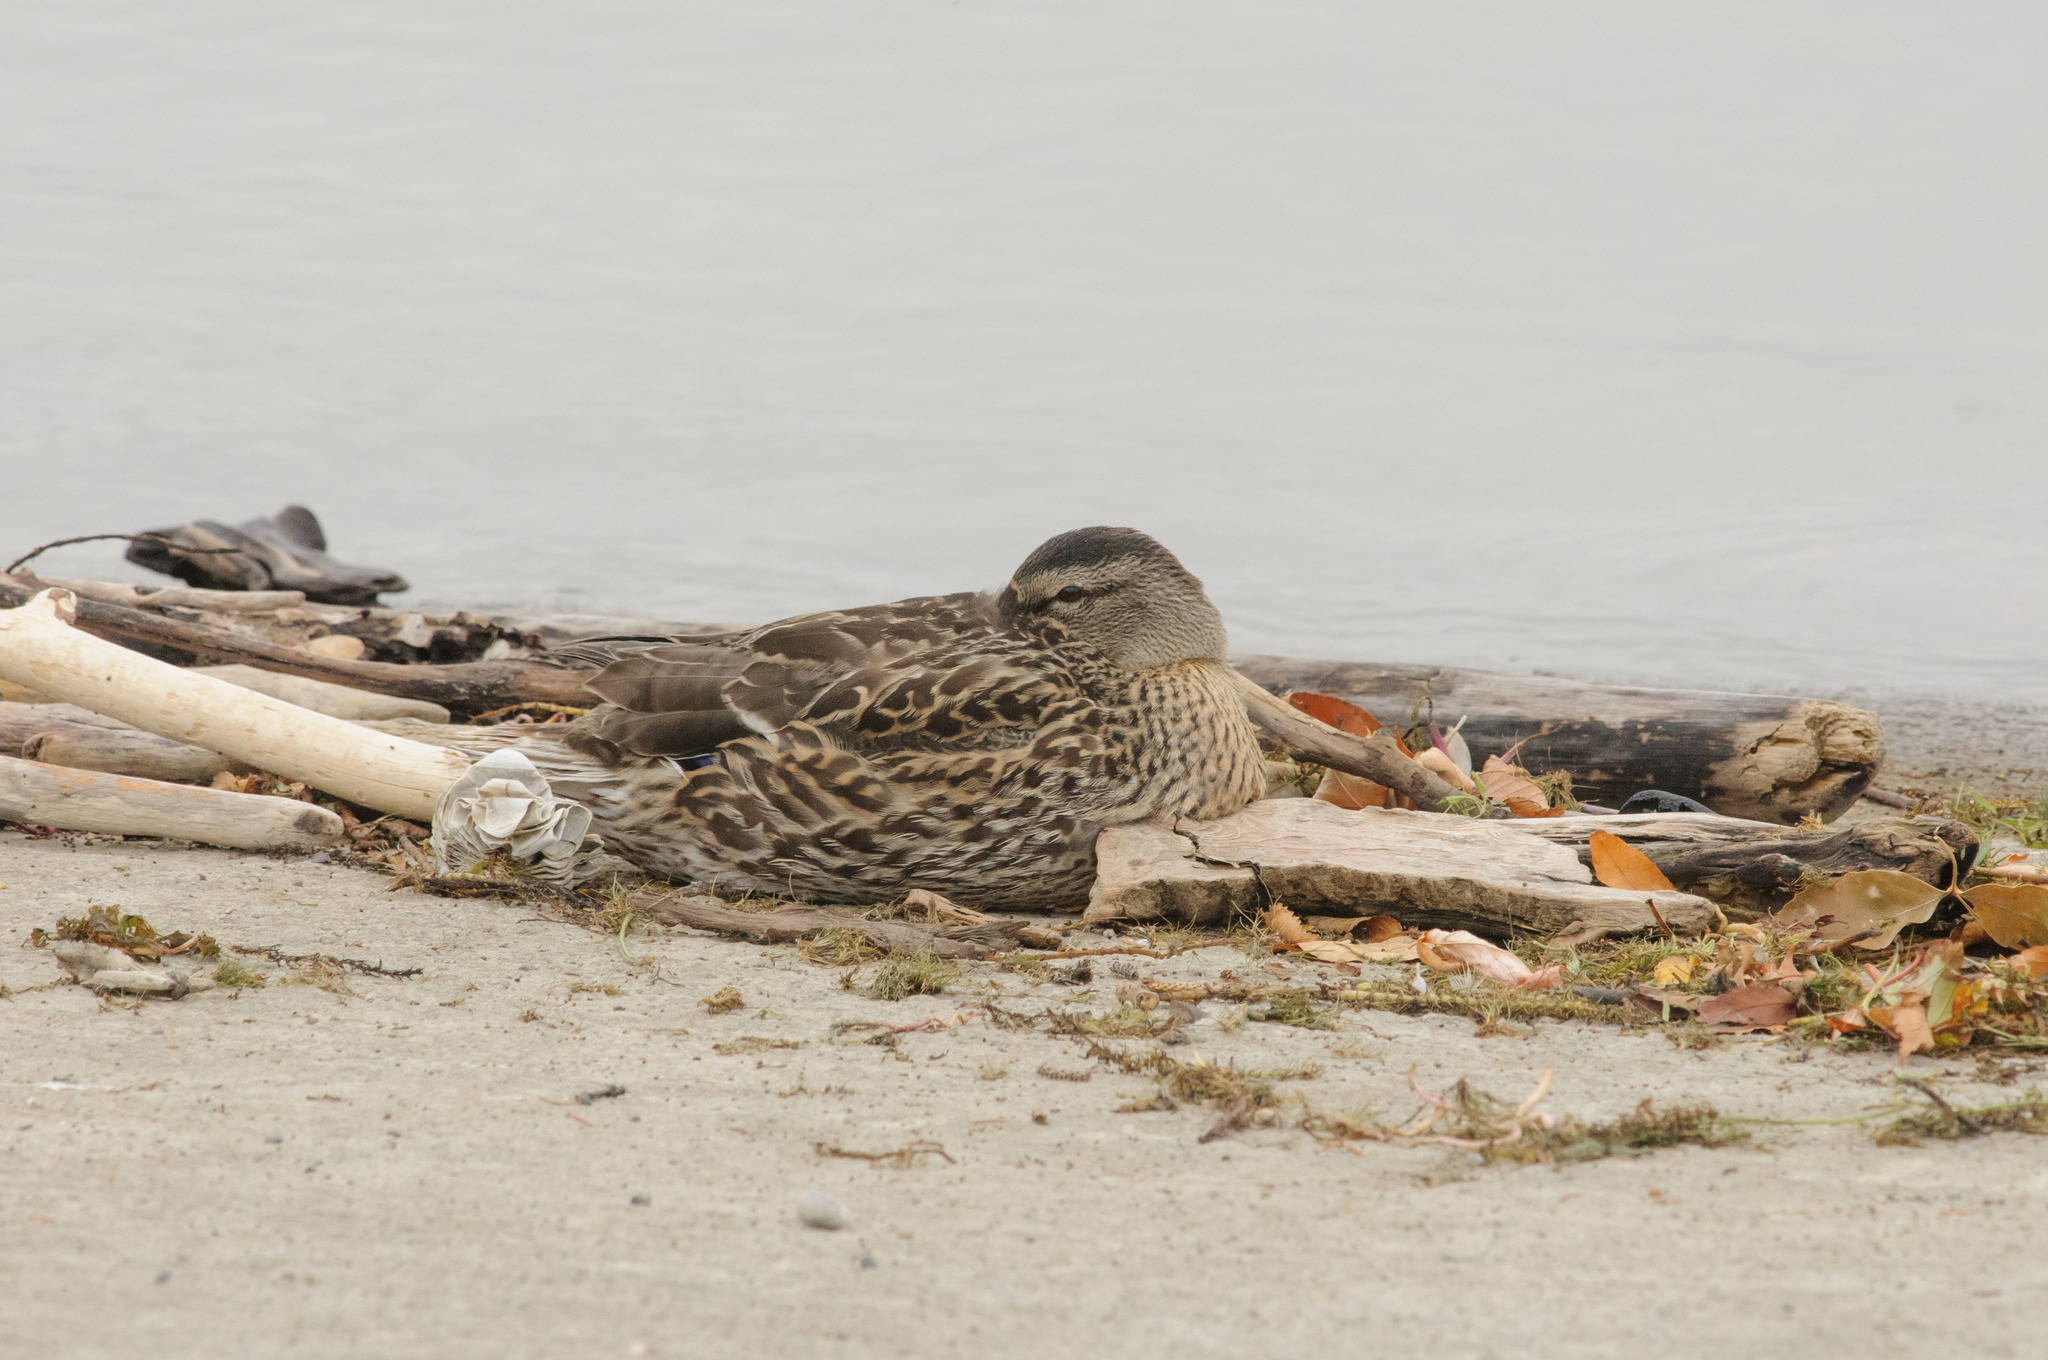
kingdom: Animalia
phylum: Chordata
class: Aves
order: Anseriformes
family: Anatidae
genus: Anas
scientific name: Anas platyrhynchos
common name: Mallard
